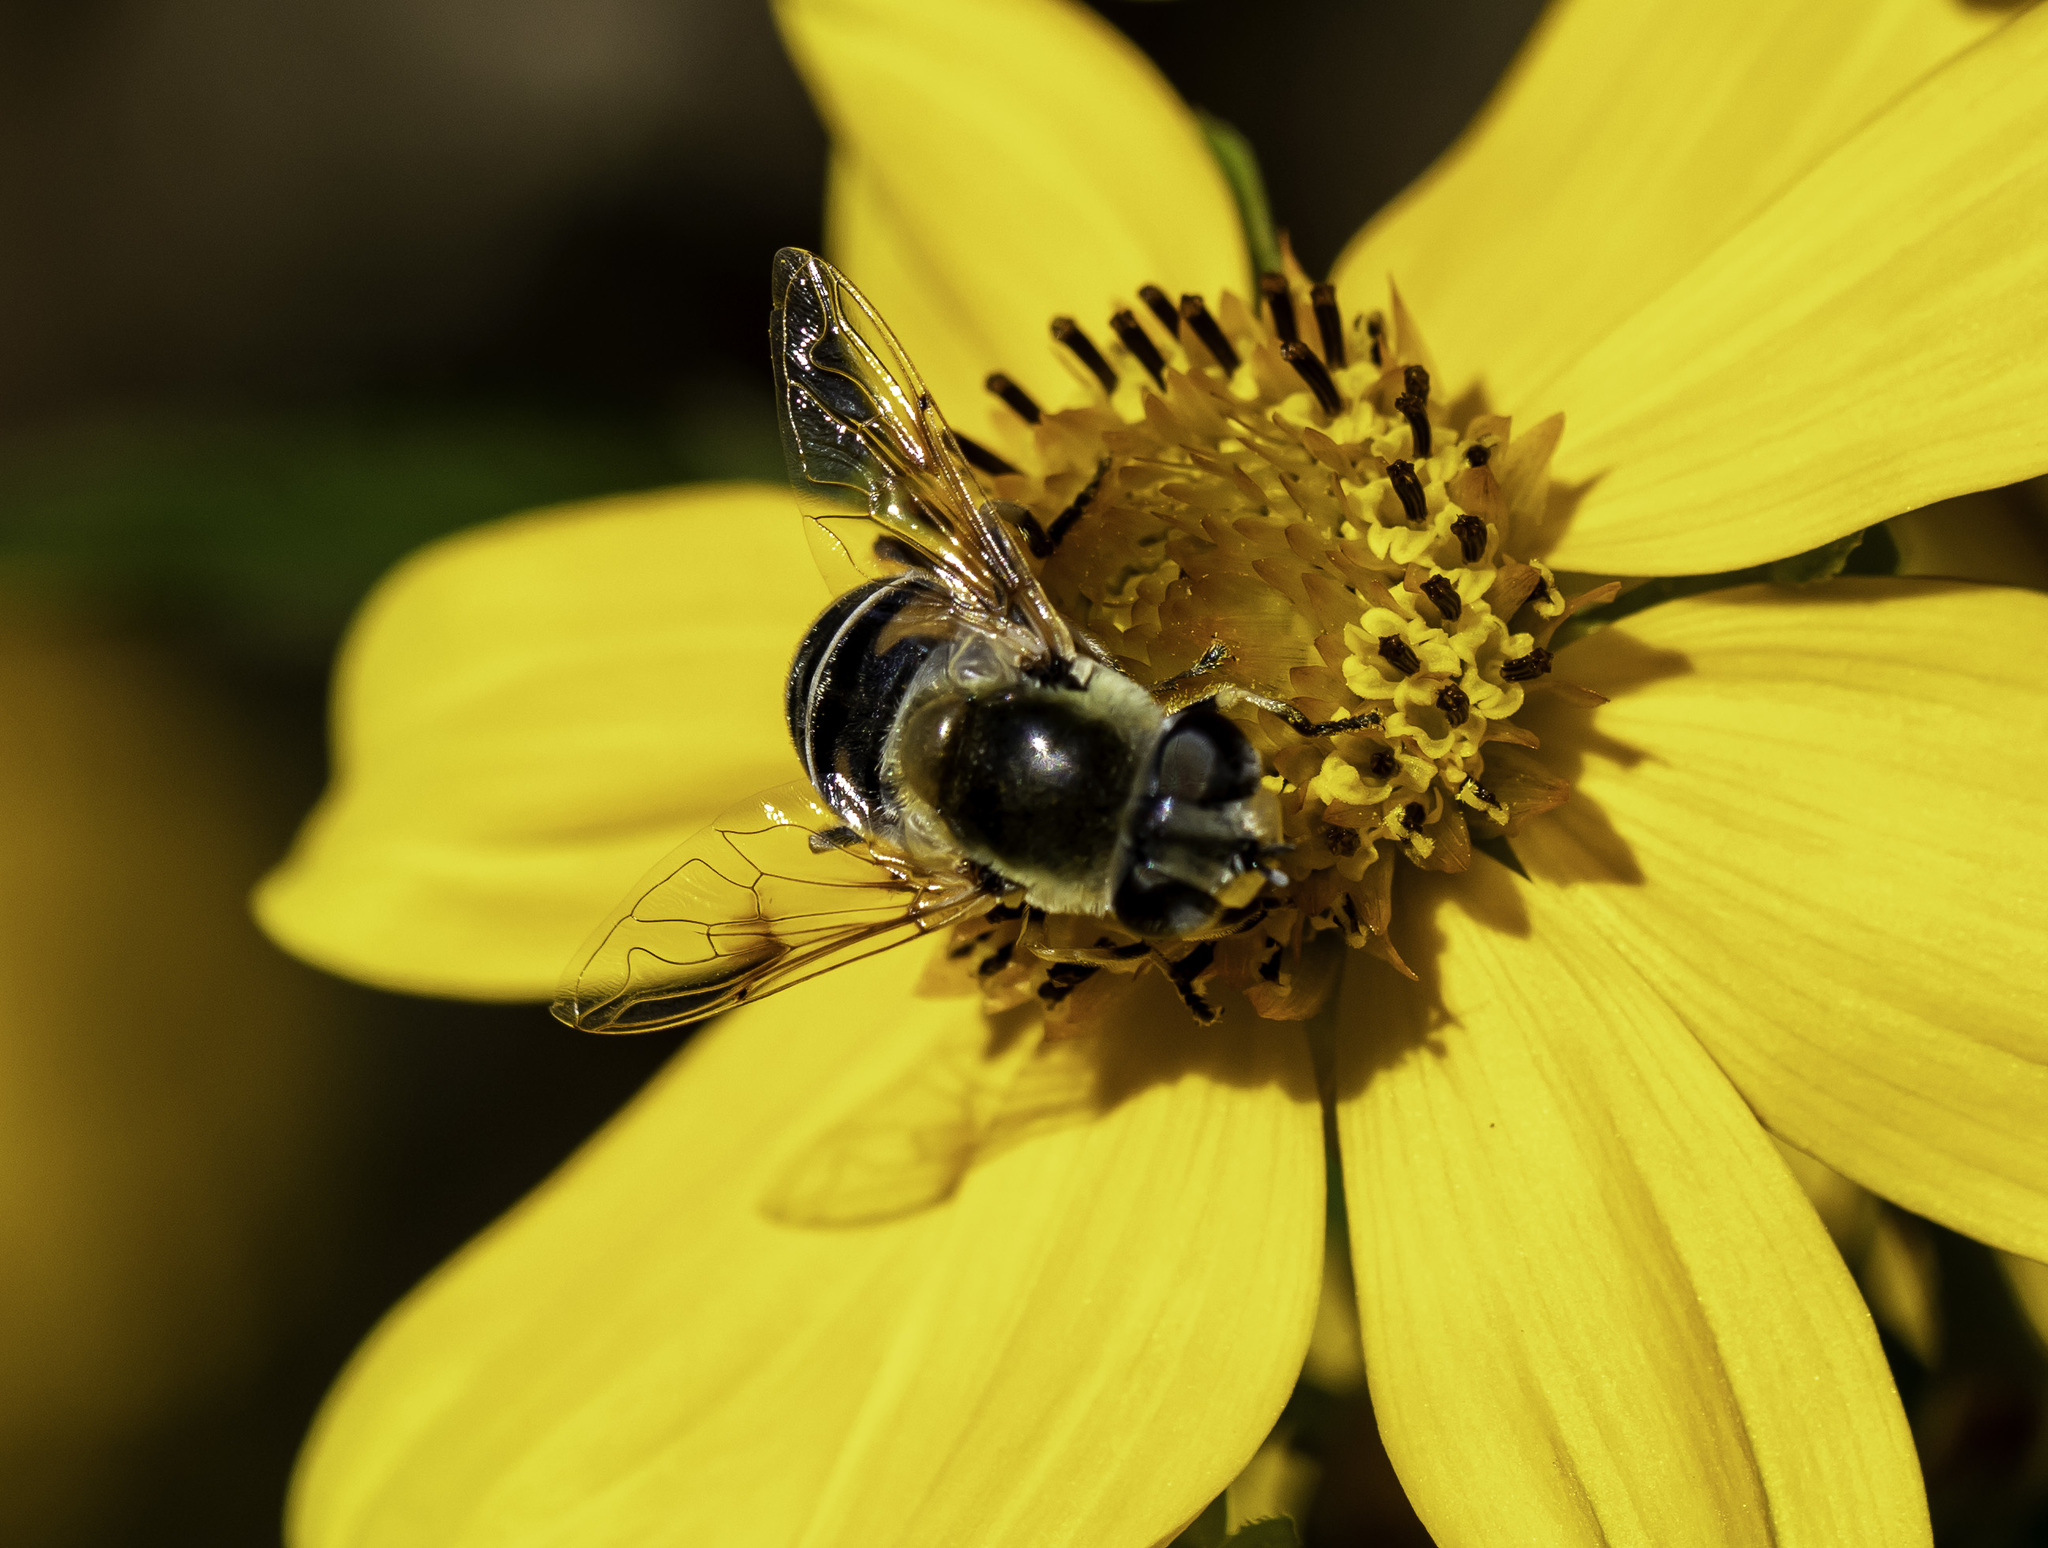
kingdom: Animalia
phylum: Arthropoda
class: Insecta
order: Diptera
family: Syrphidae
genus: Eristalis
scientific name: Eristalis stipator
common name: Yellow-shouldered drone fly
